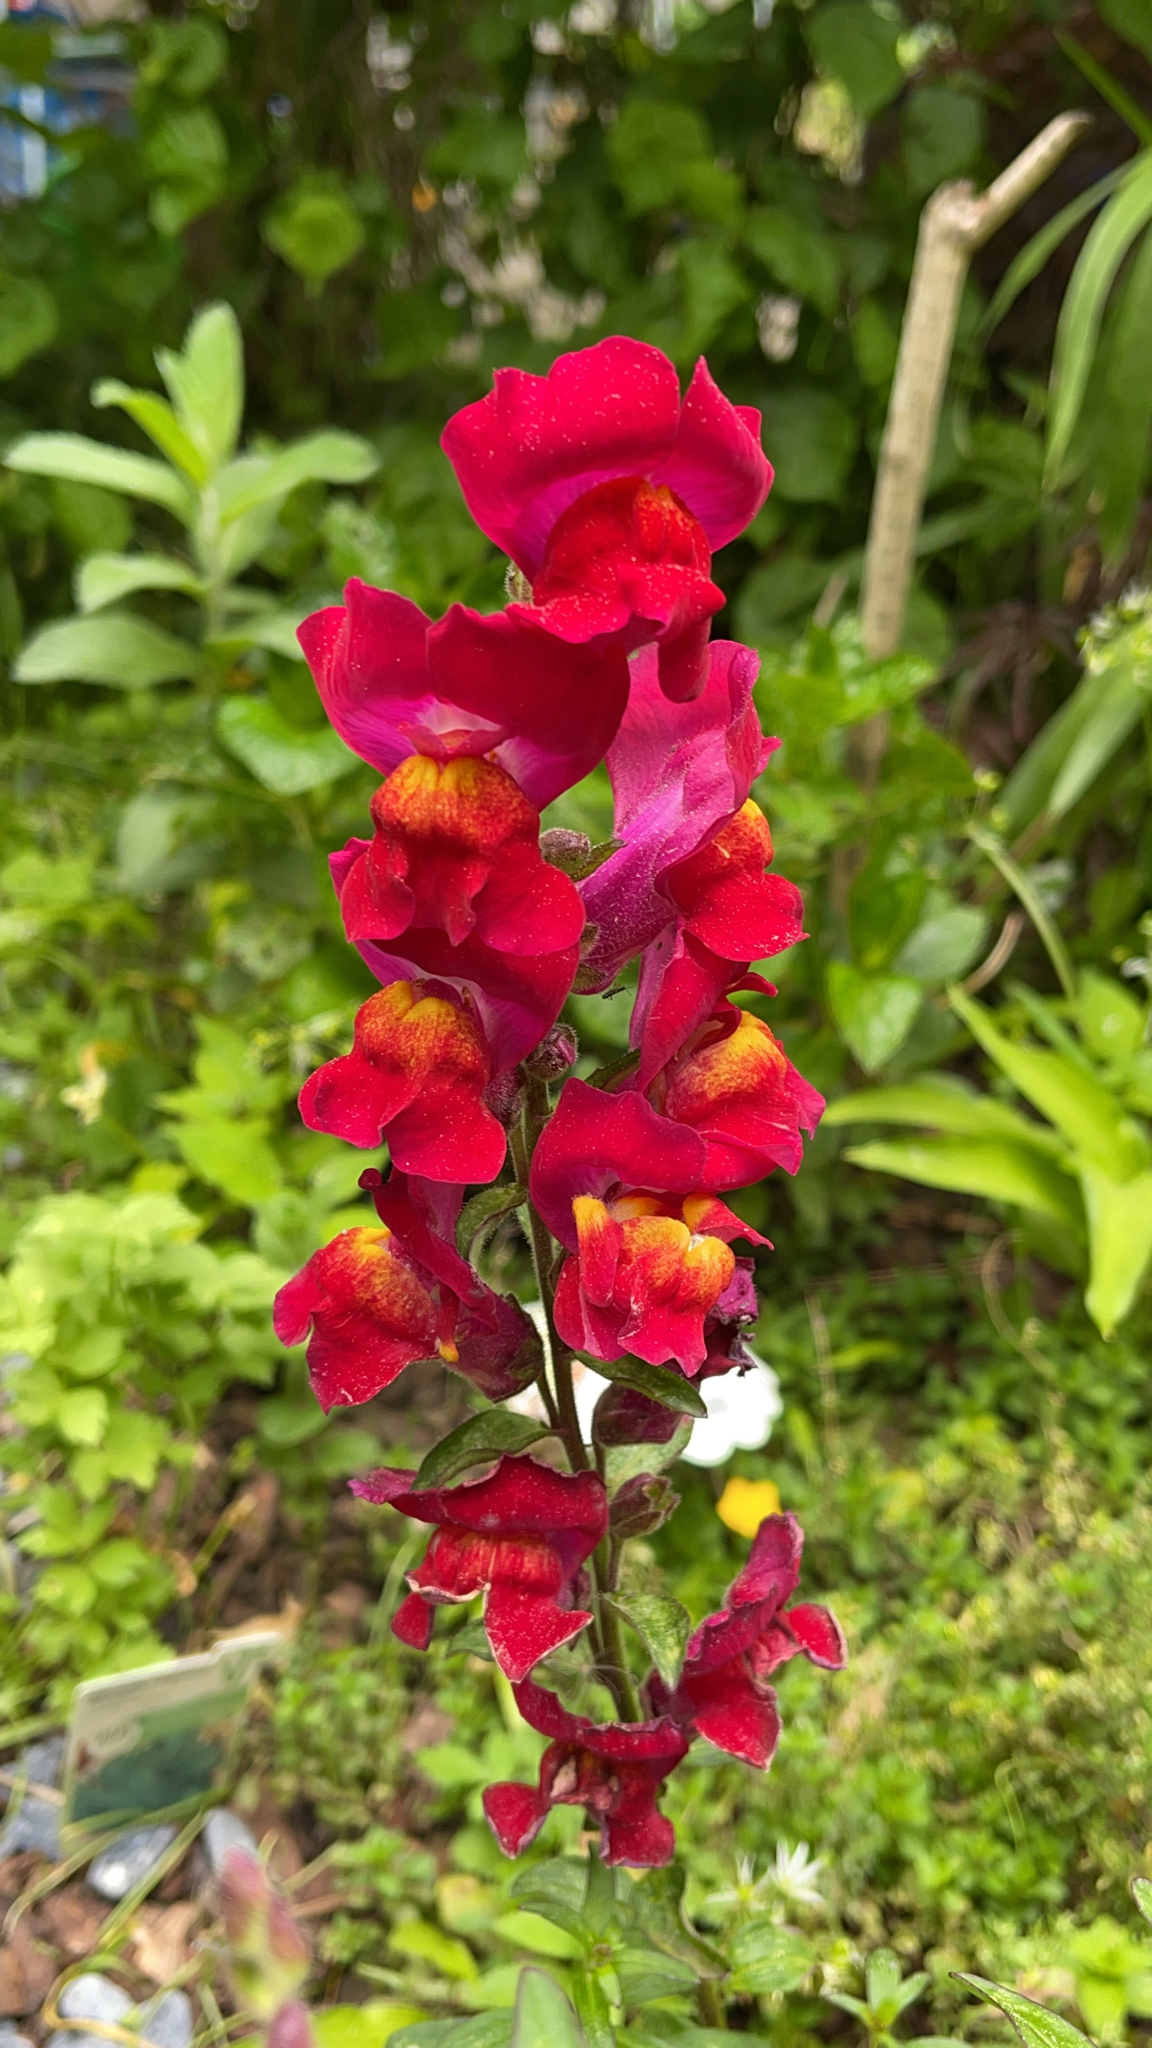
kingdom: Plantae
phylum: Tracheophyta
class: Magnoliopsida
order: Lamiales
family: Plantaginaceae
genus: Antirrhinum
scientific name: Antirrhinum majus
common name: Snapdragon
